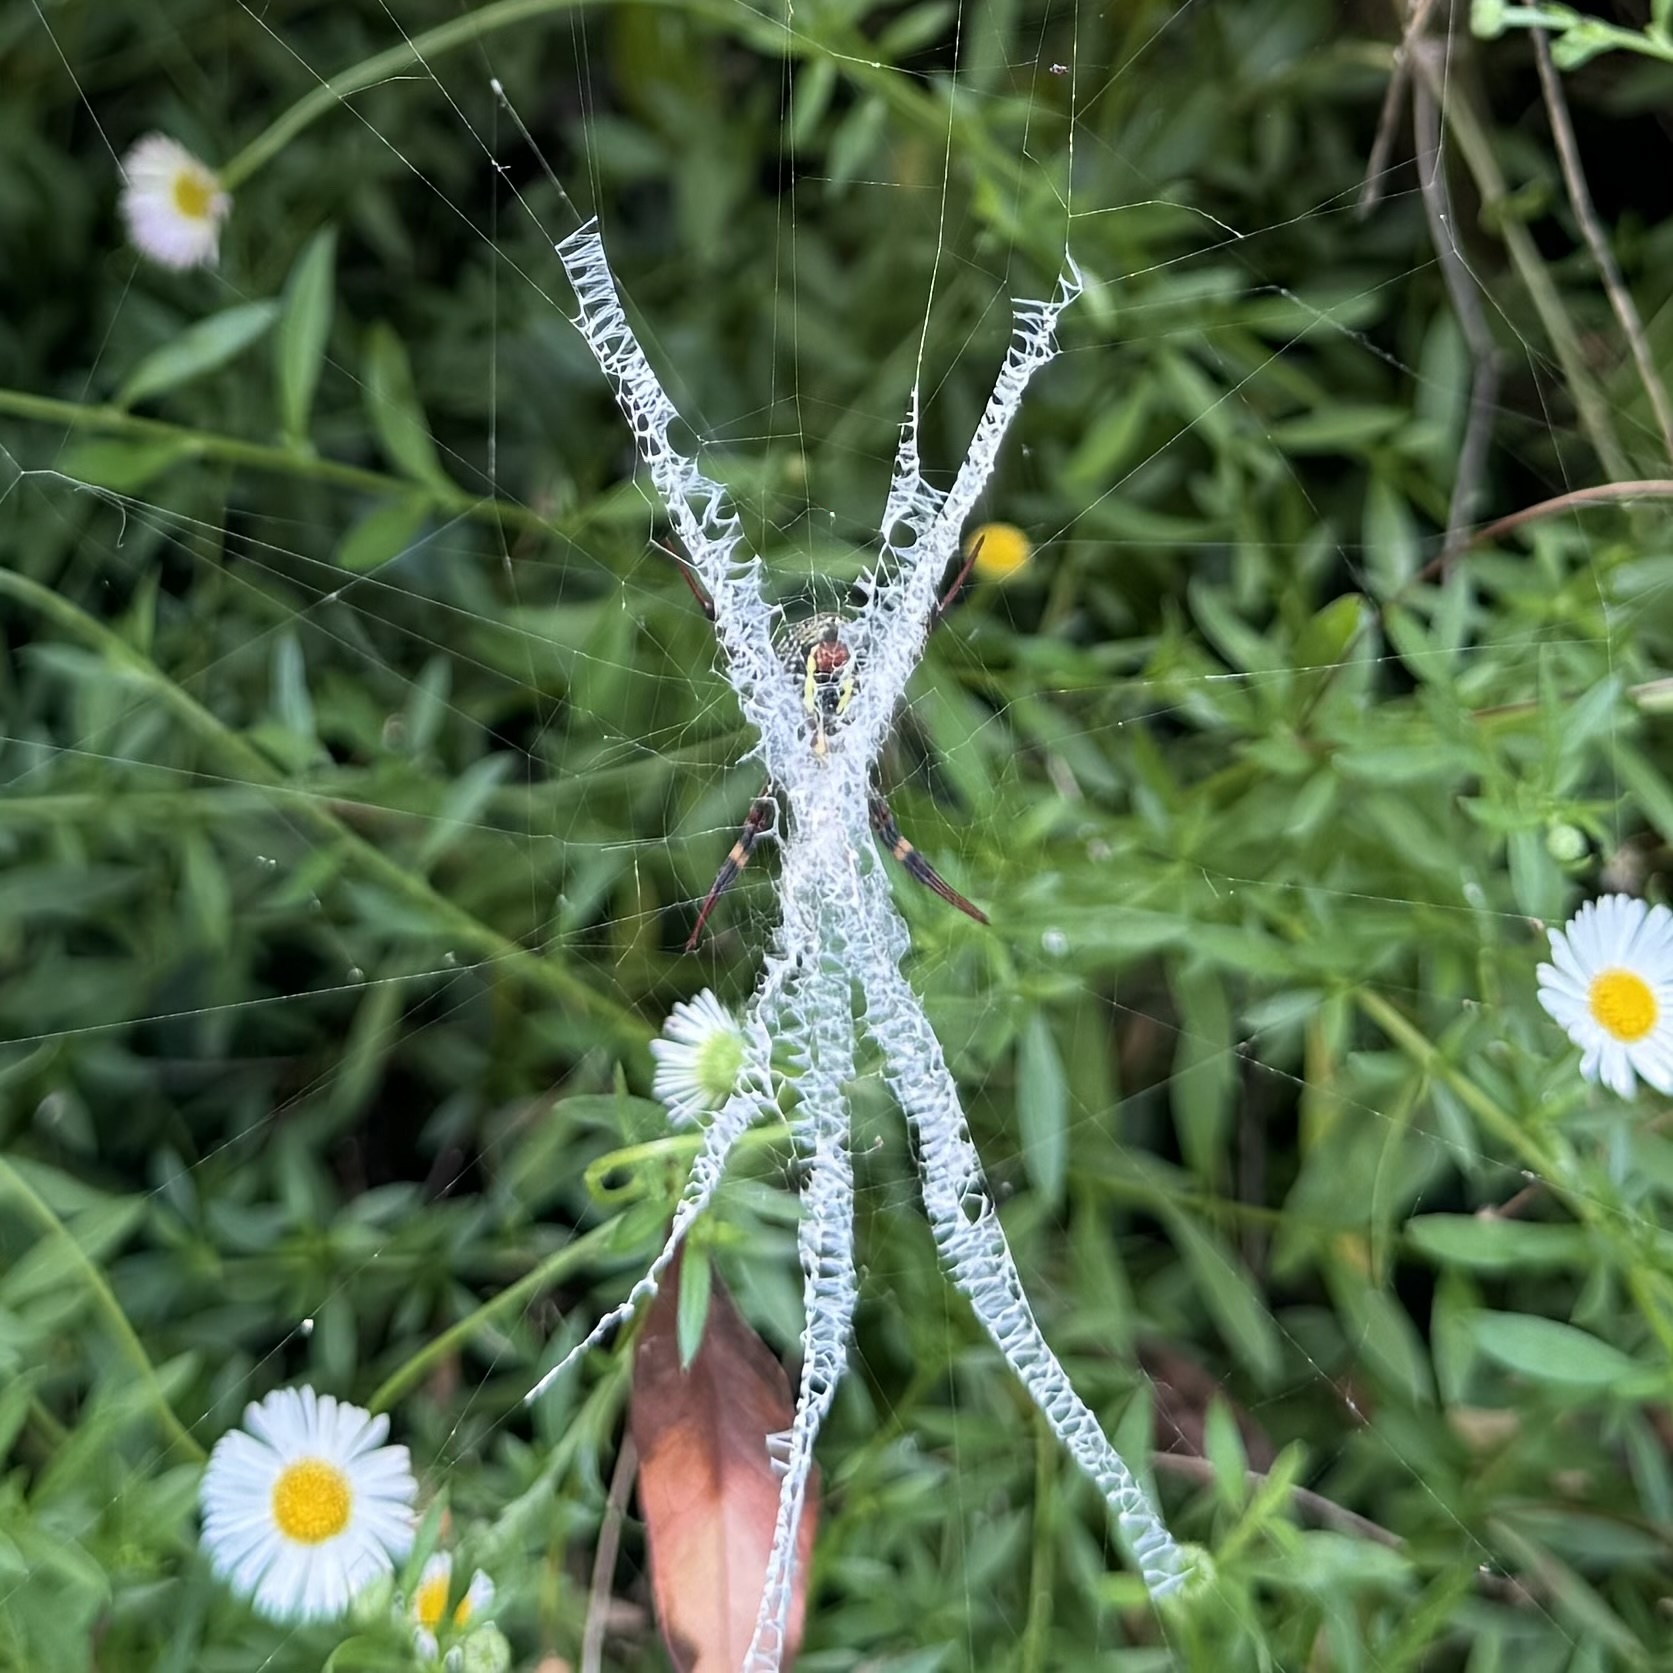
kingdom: Animalia
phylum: Arthropoda
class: Arachnida
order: Araneae
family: Araneidae
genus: Argiope
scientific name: Argiope keyserlingi
